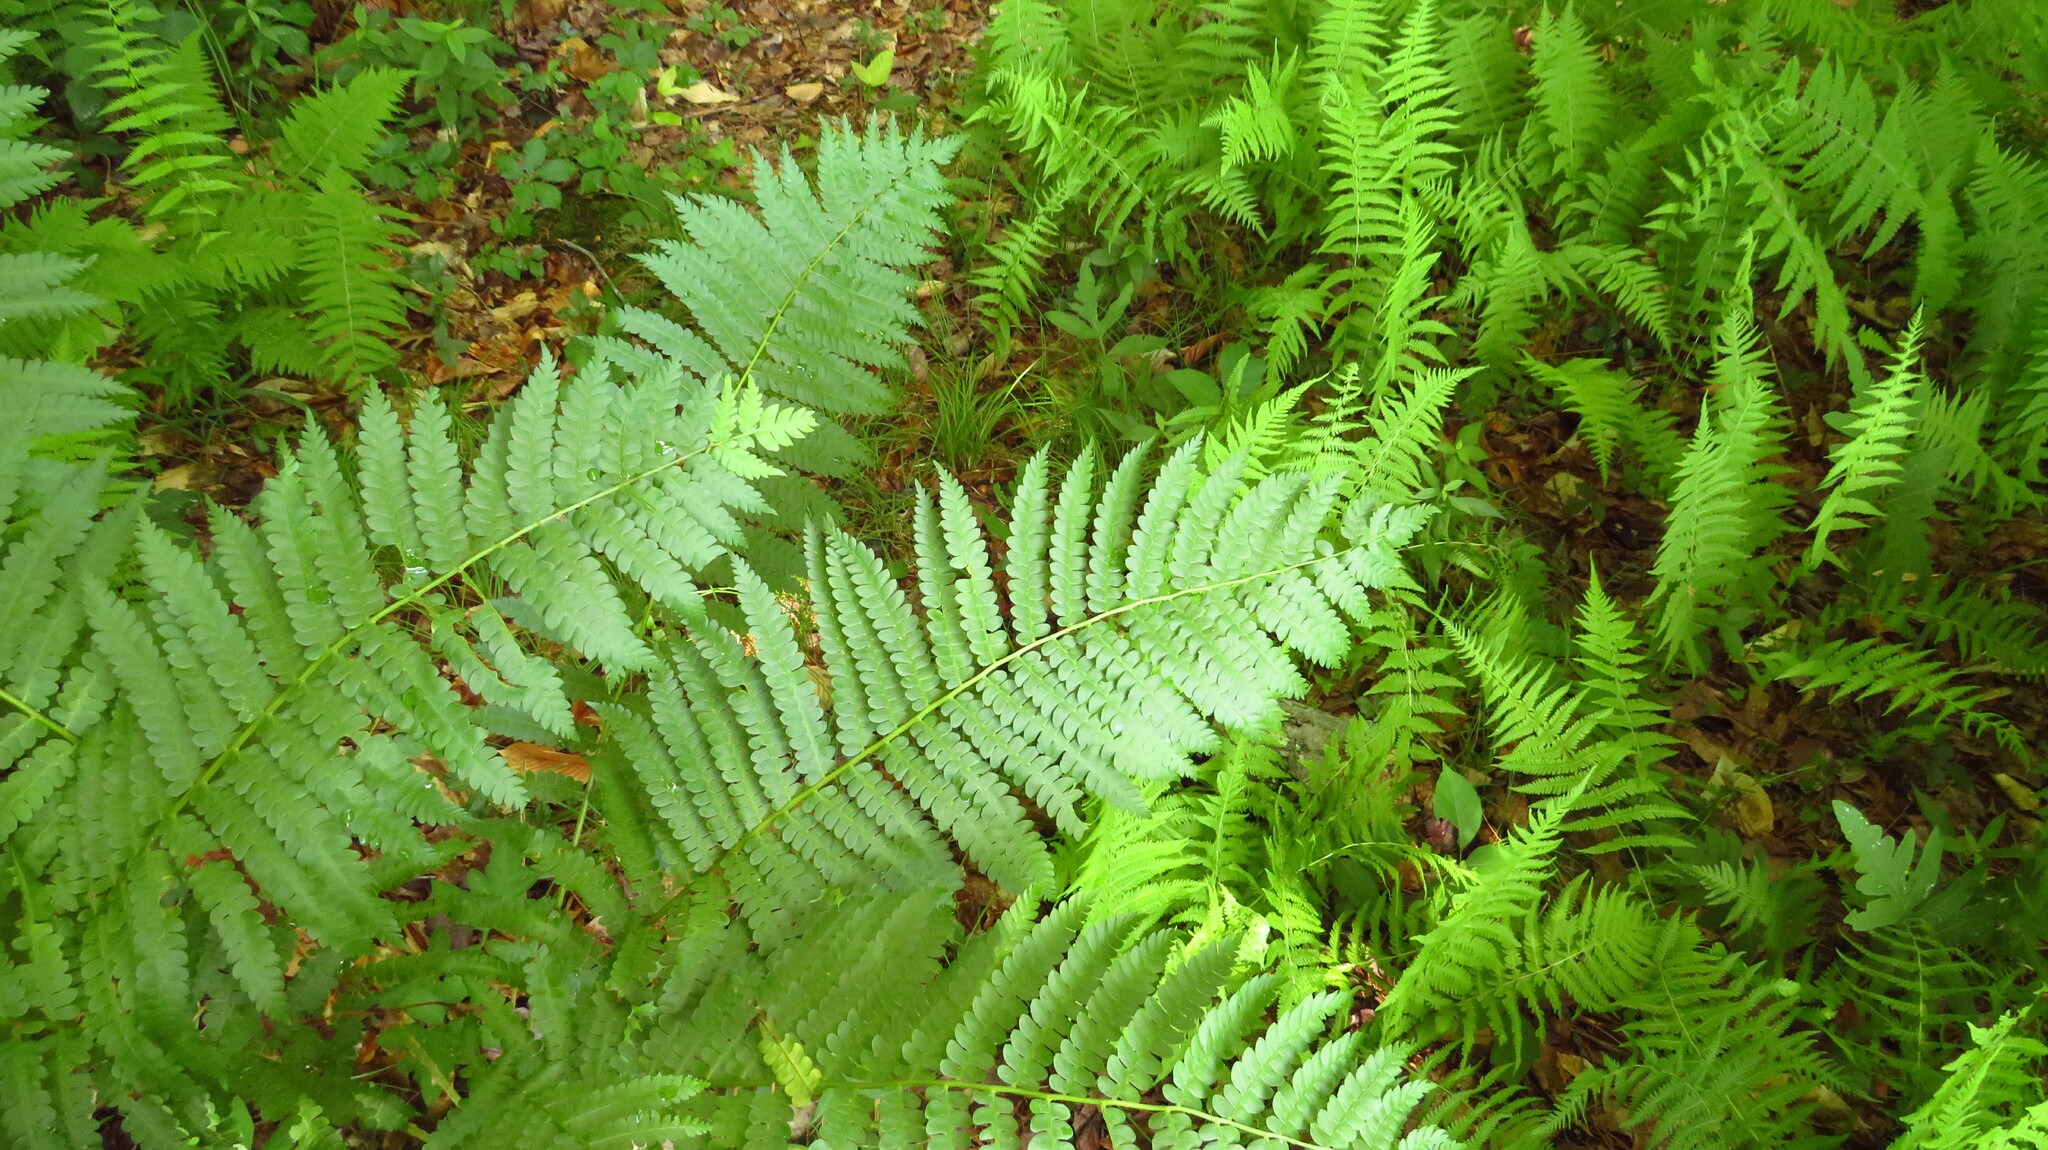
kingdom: Plantae
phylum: Tracheophyta
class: Polypodiopsida
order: Osmundales
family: Osmundaceae
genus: Osmundastrum
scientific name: Osmundastrum cinnamomeum
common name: Cinnamon fern
